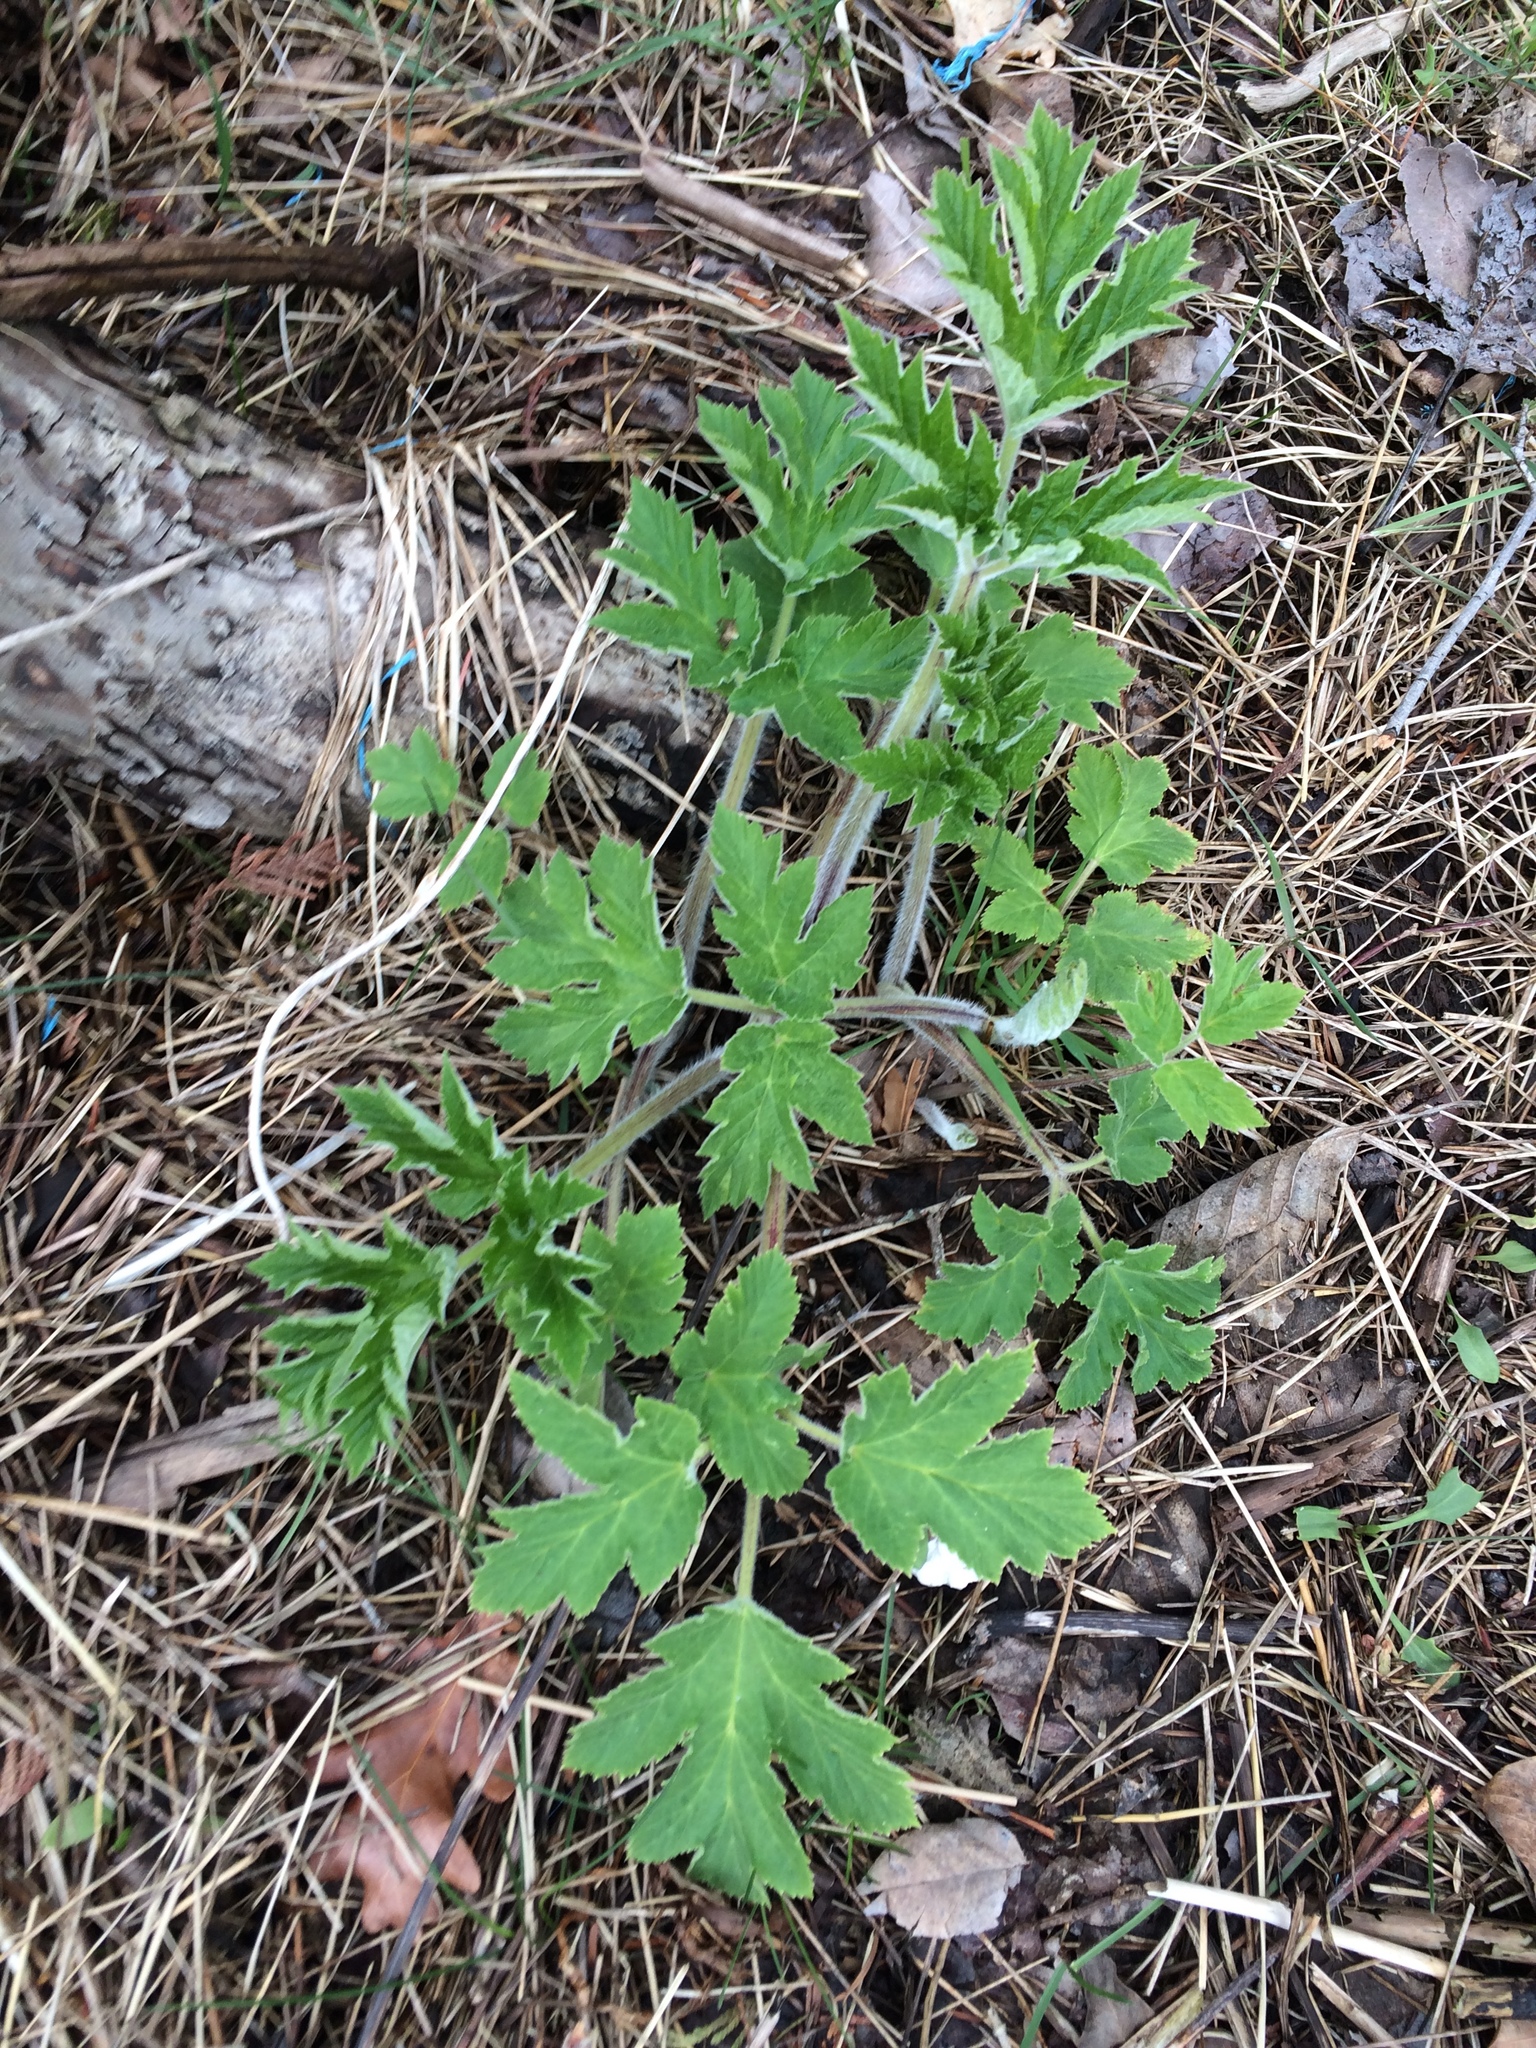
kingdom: Plantae
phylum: Tracheophyta
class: Magnoliopsida
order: Apiales
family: Apiaceae
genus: Heracleum
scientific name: Heracleum maximum
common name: American cow parsnip
